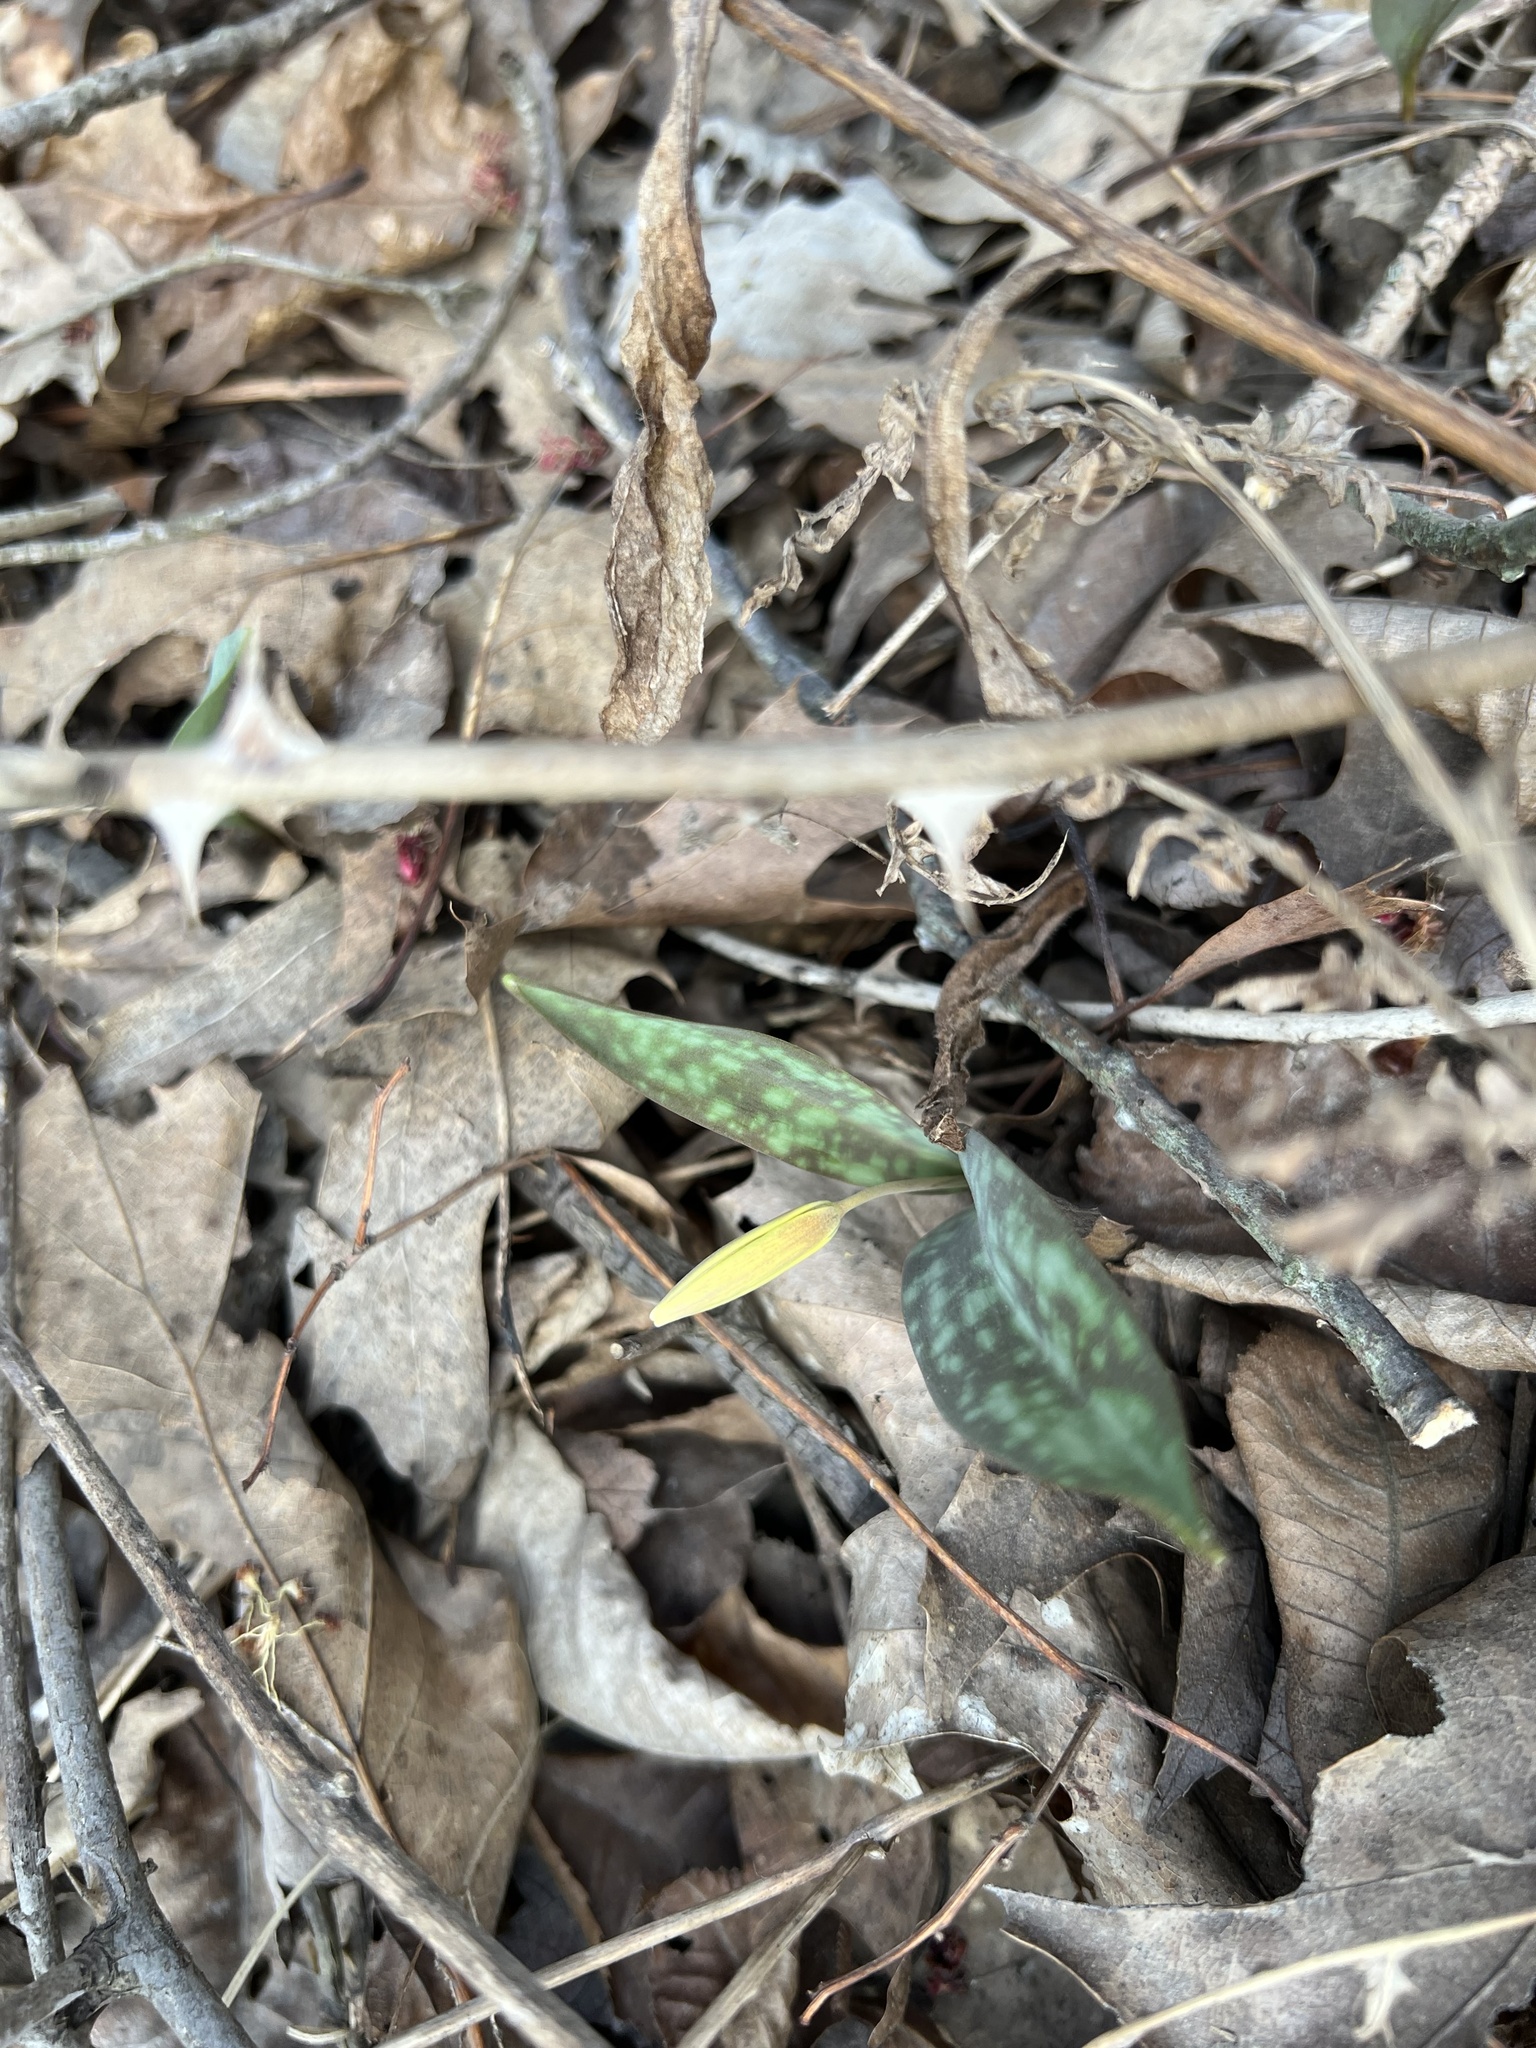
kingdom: Plantae
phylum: Tracheophyta
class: Liliopsida
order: Liliales
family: Liliaceae
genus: Erythronium
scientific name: Erythronium americanum
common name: Yellow adder's-tongue
